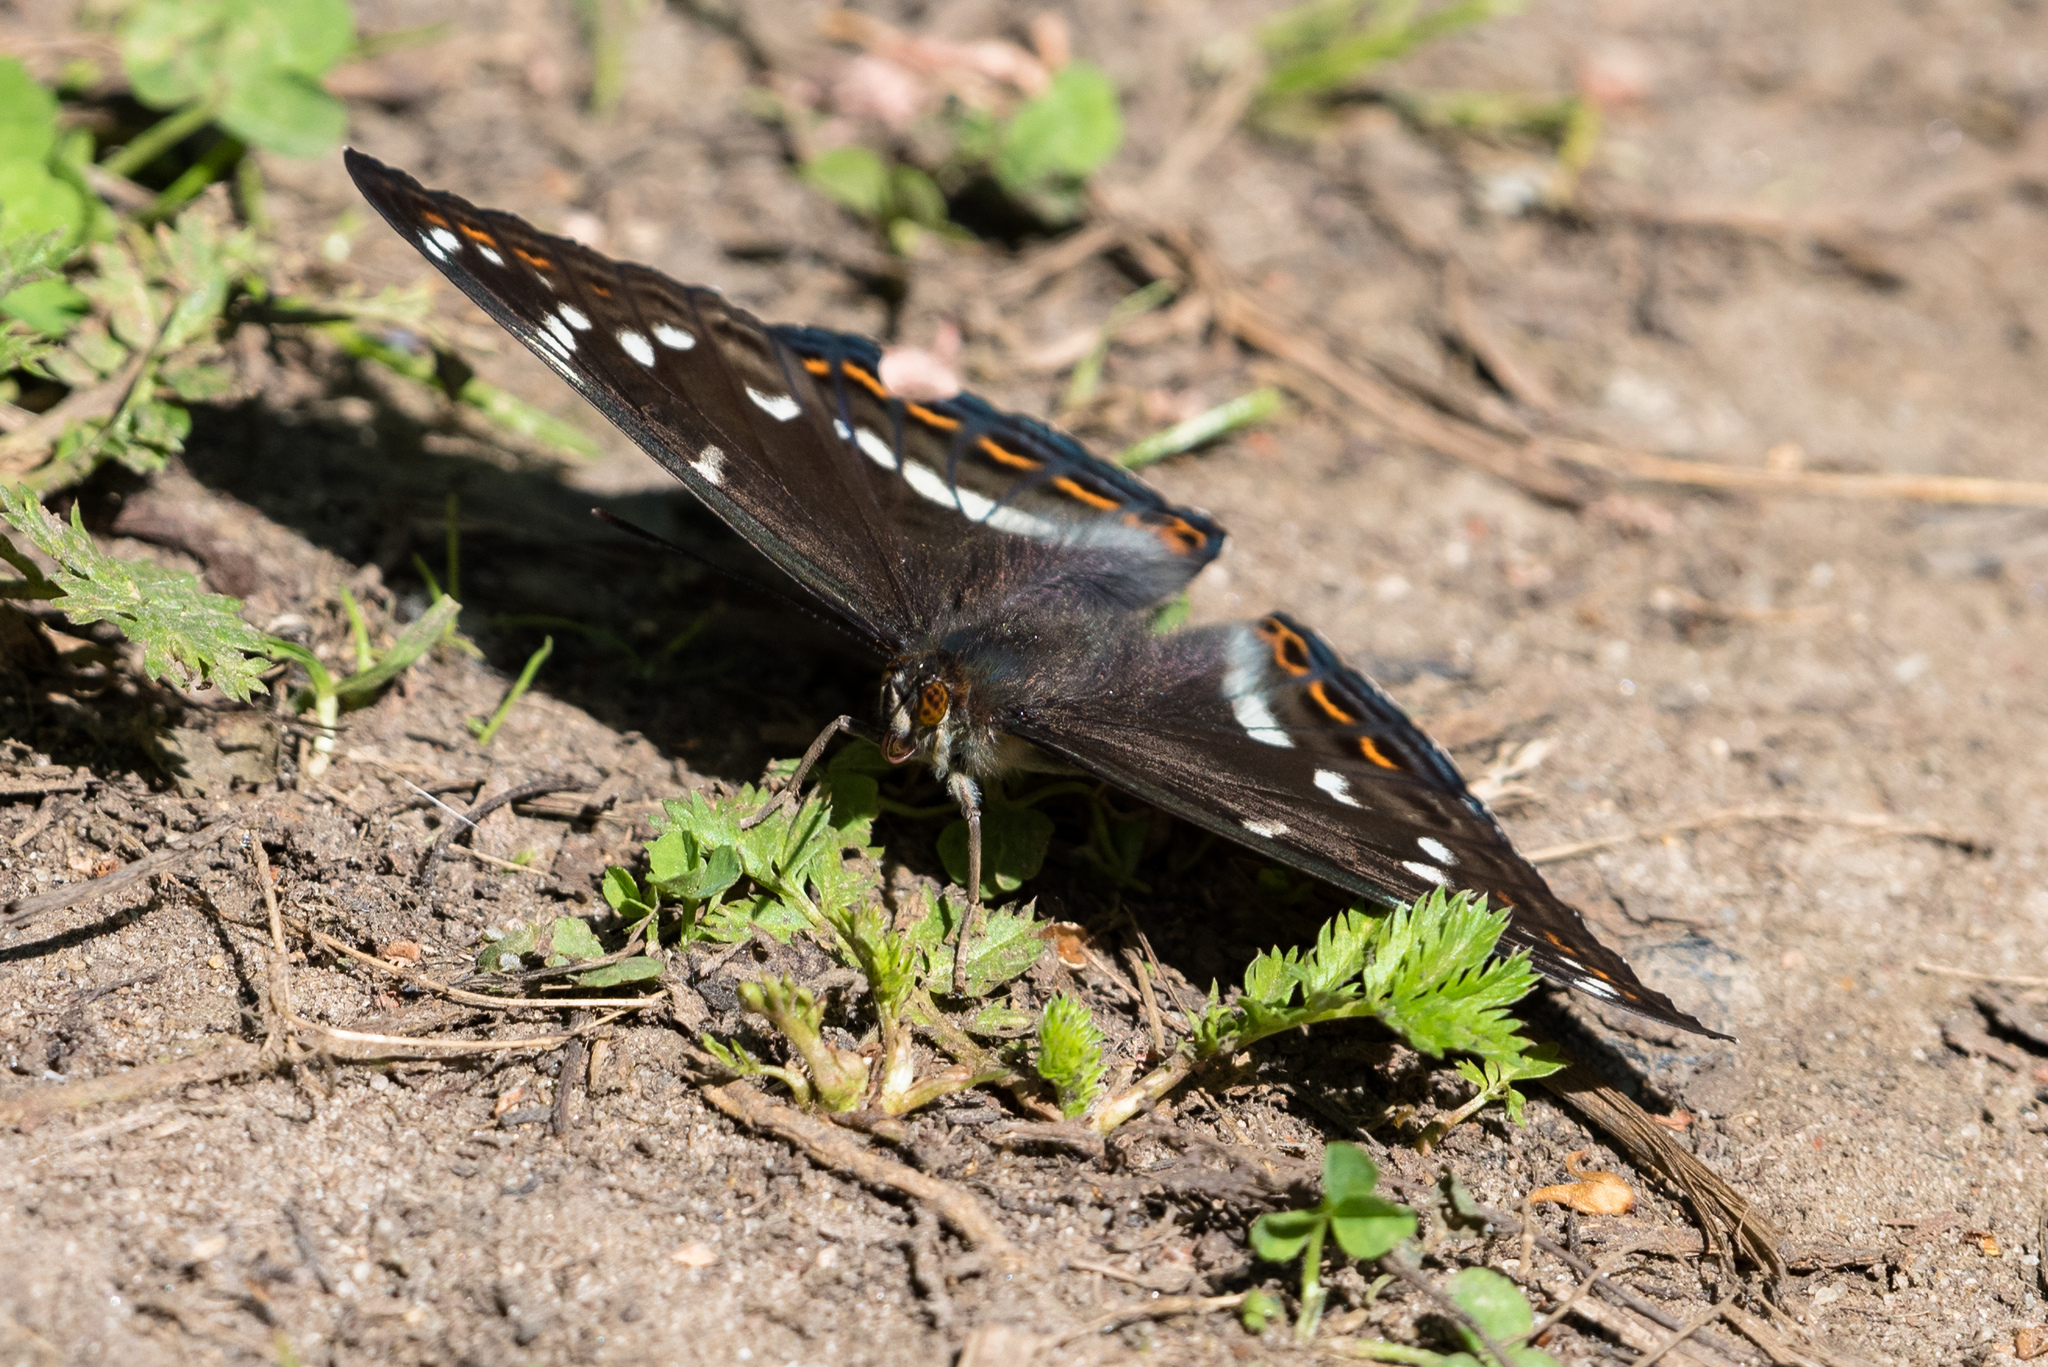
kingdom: Animalia
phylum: Arthropoda
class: Insecta
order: Lepidoptera
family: Nymphalidae
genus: Limenitis
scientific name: Limenitis populi
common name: Poplar admiral
